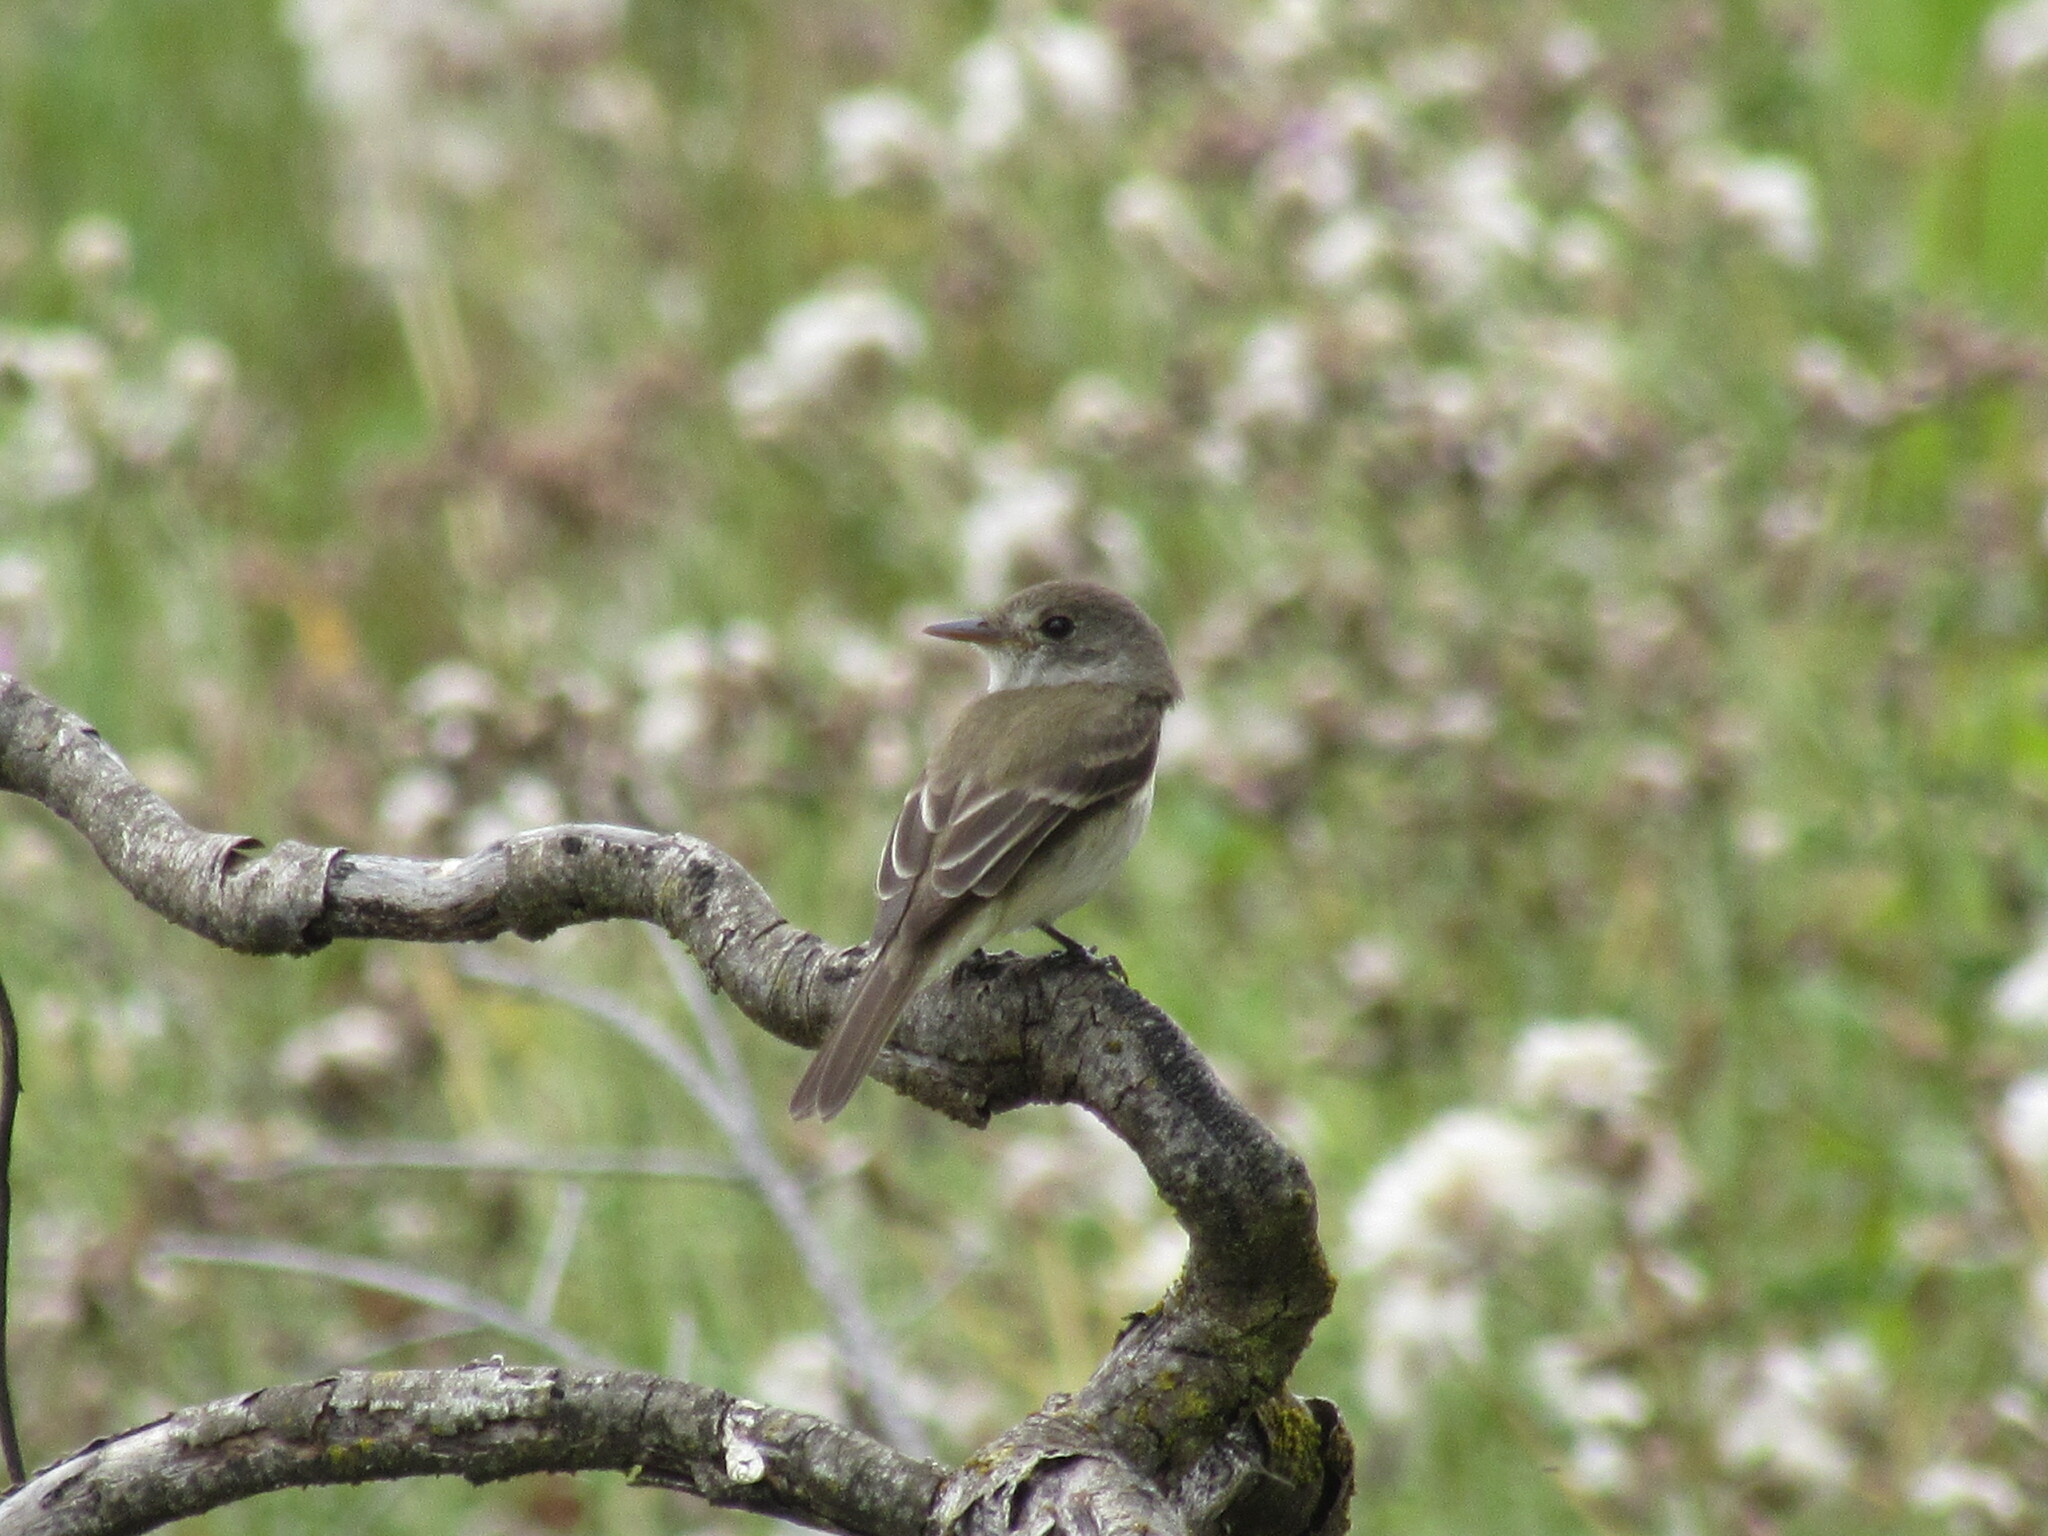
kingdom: Animalia
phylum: Chordata
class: Aves
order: Passeriformes
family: Tyrannidae
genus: Empidonax
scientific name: Empidonax traillii
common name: Willow flycatcher
